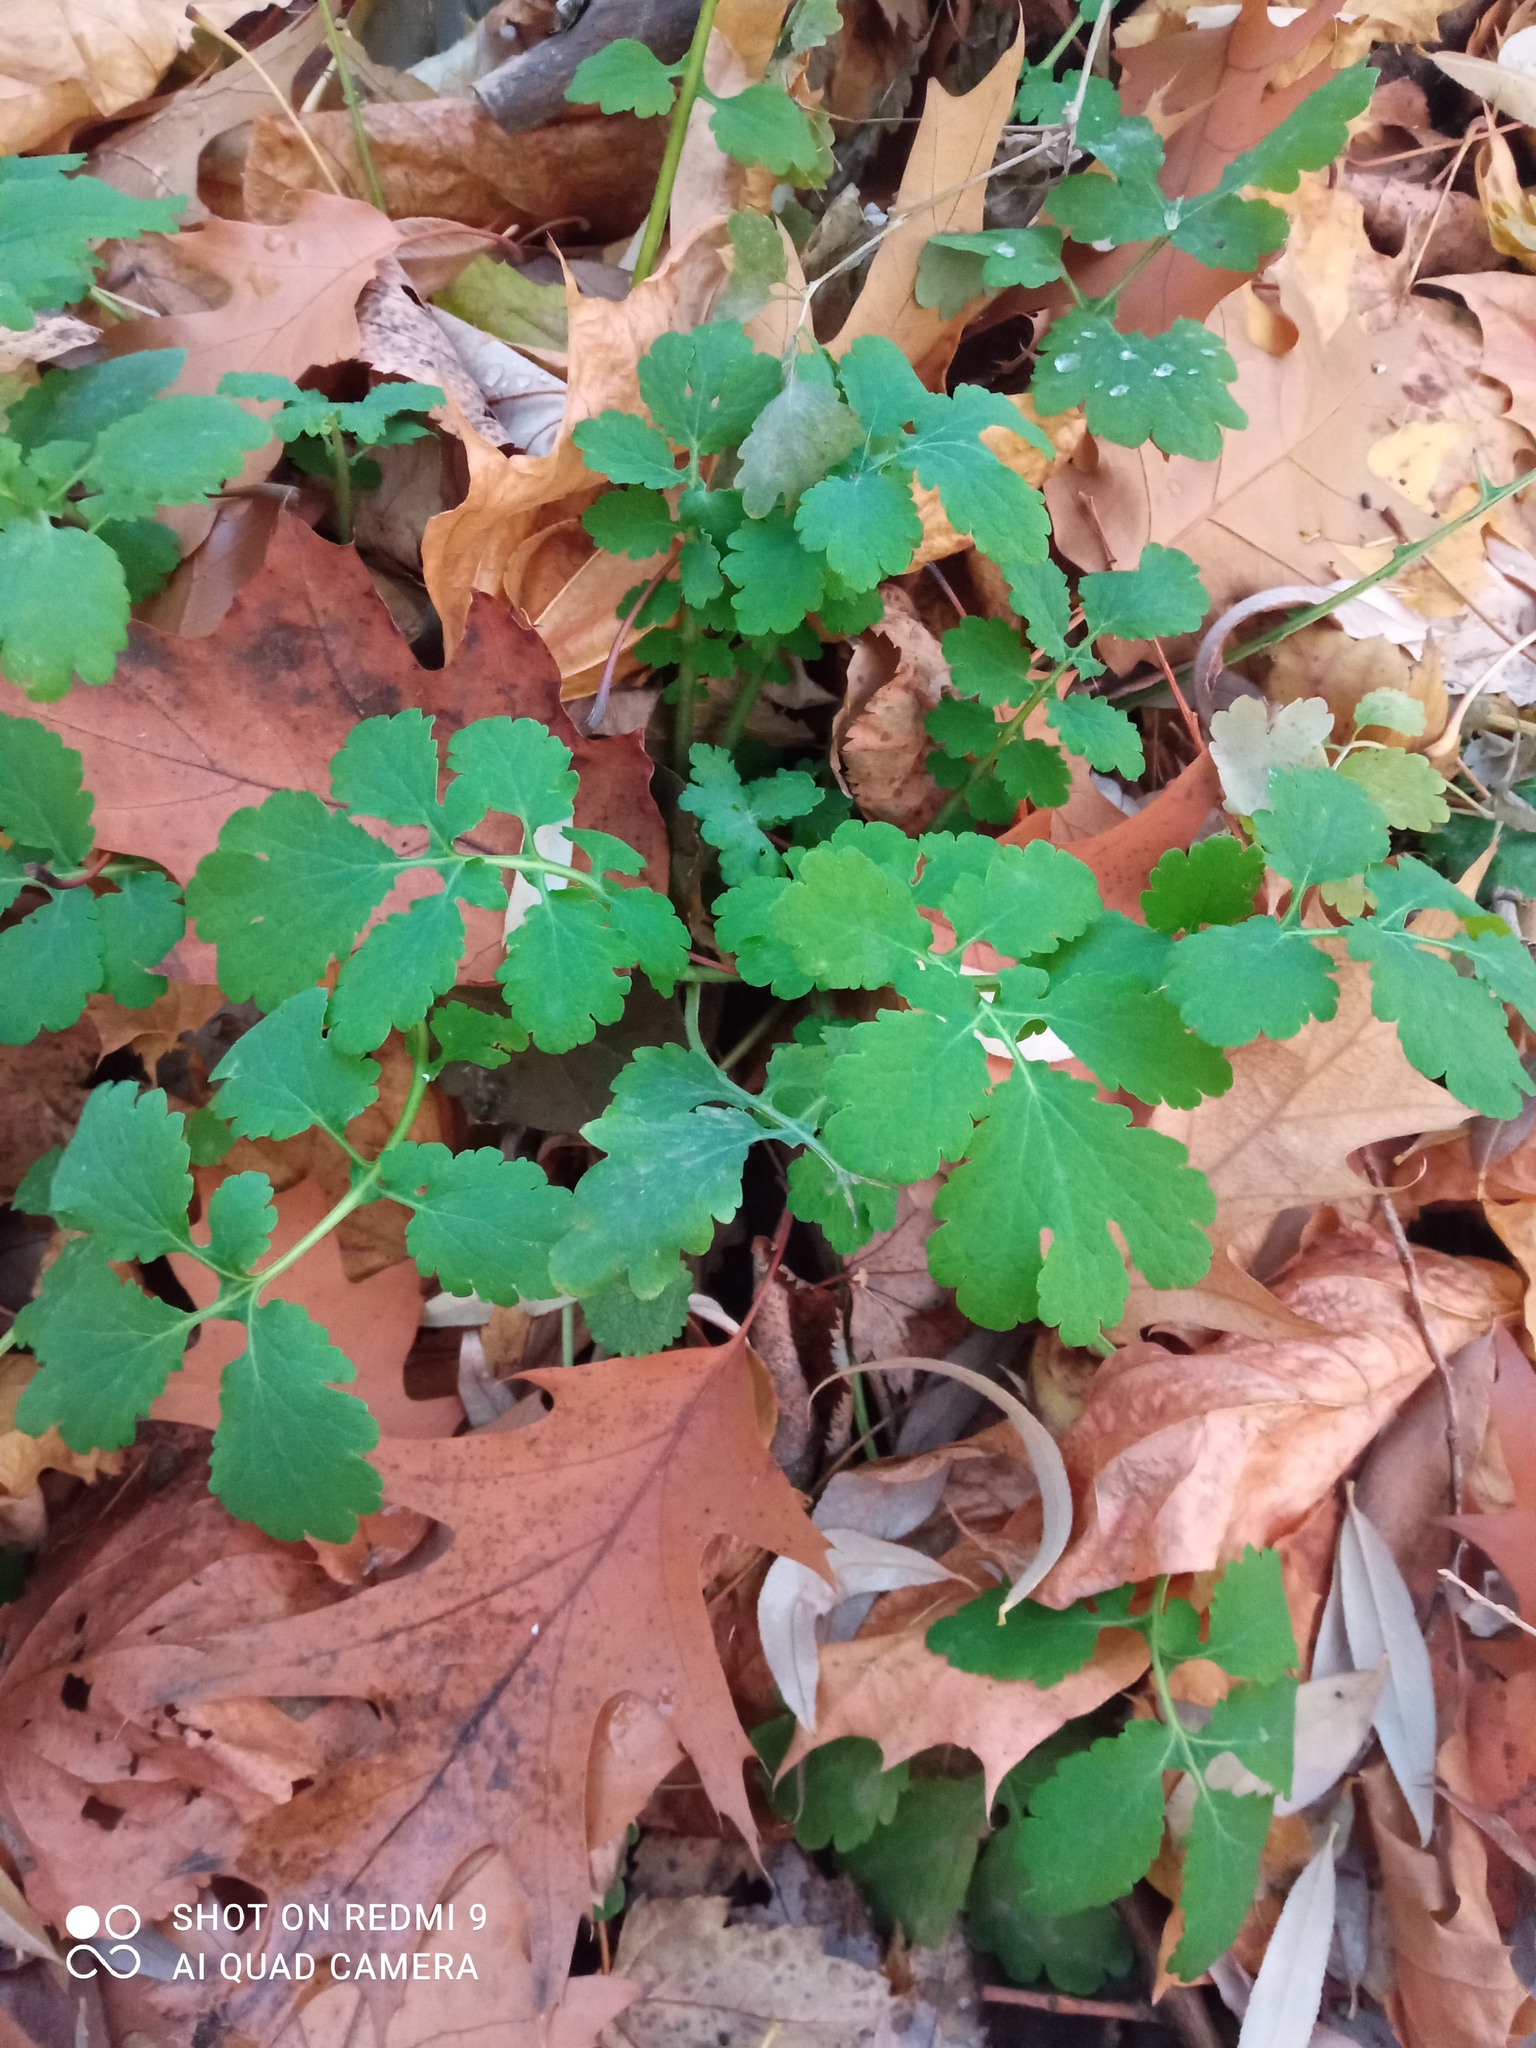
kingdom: Plantae
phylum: Tracheophyta
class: Magnoliopsida
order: Ranunculales
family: Papaveraceae
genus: Chelidonium
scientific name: Chelidonium majus
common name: Greater celandine
